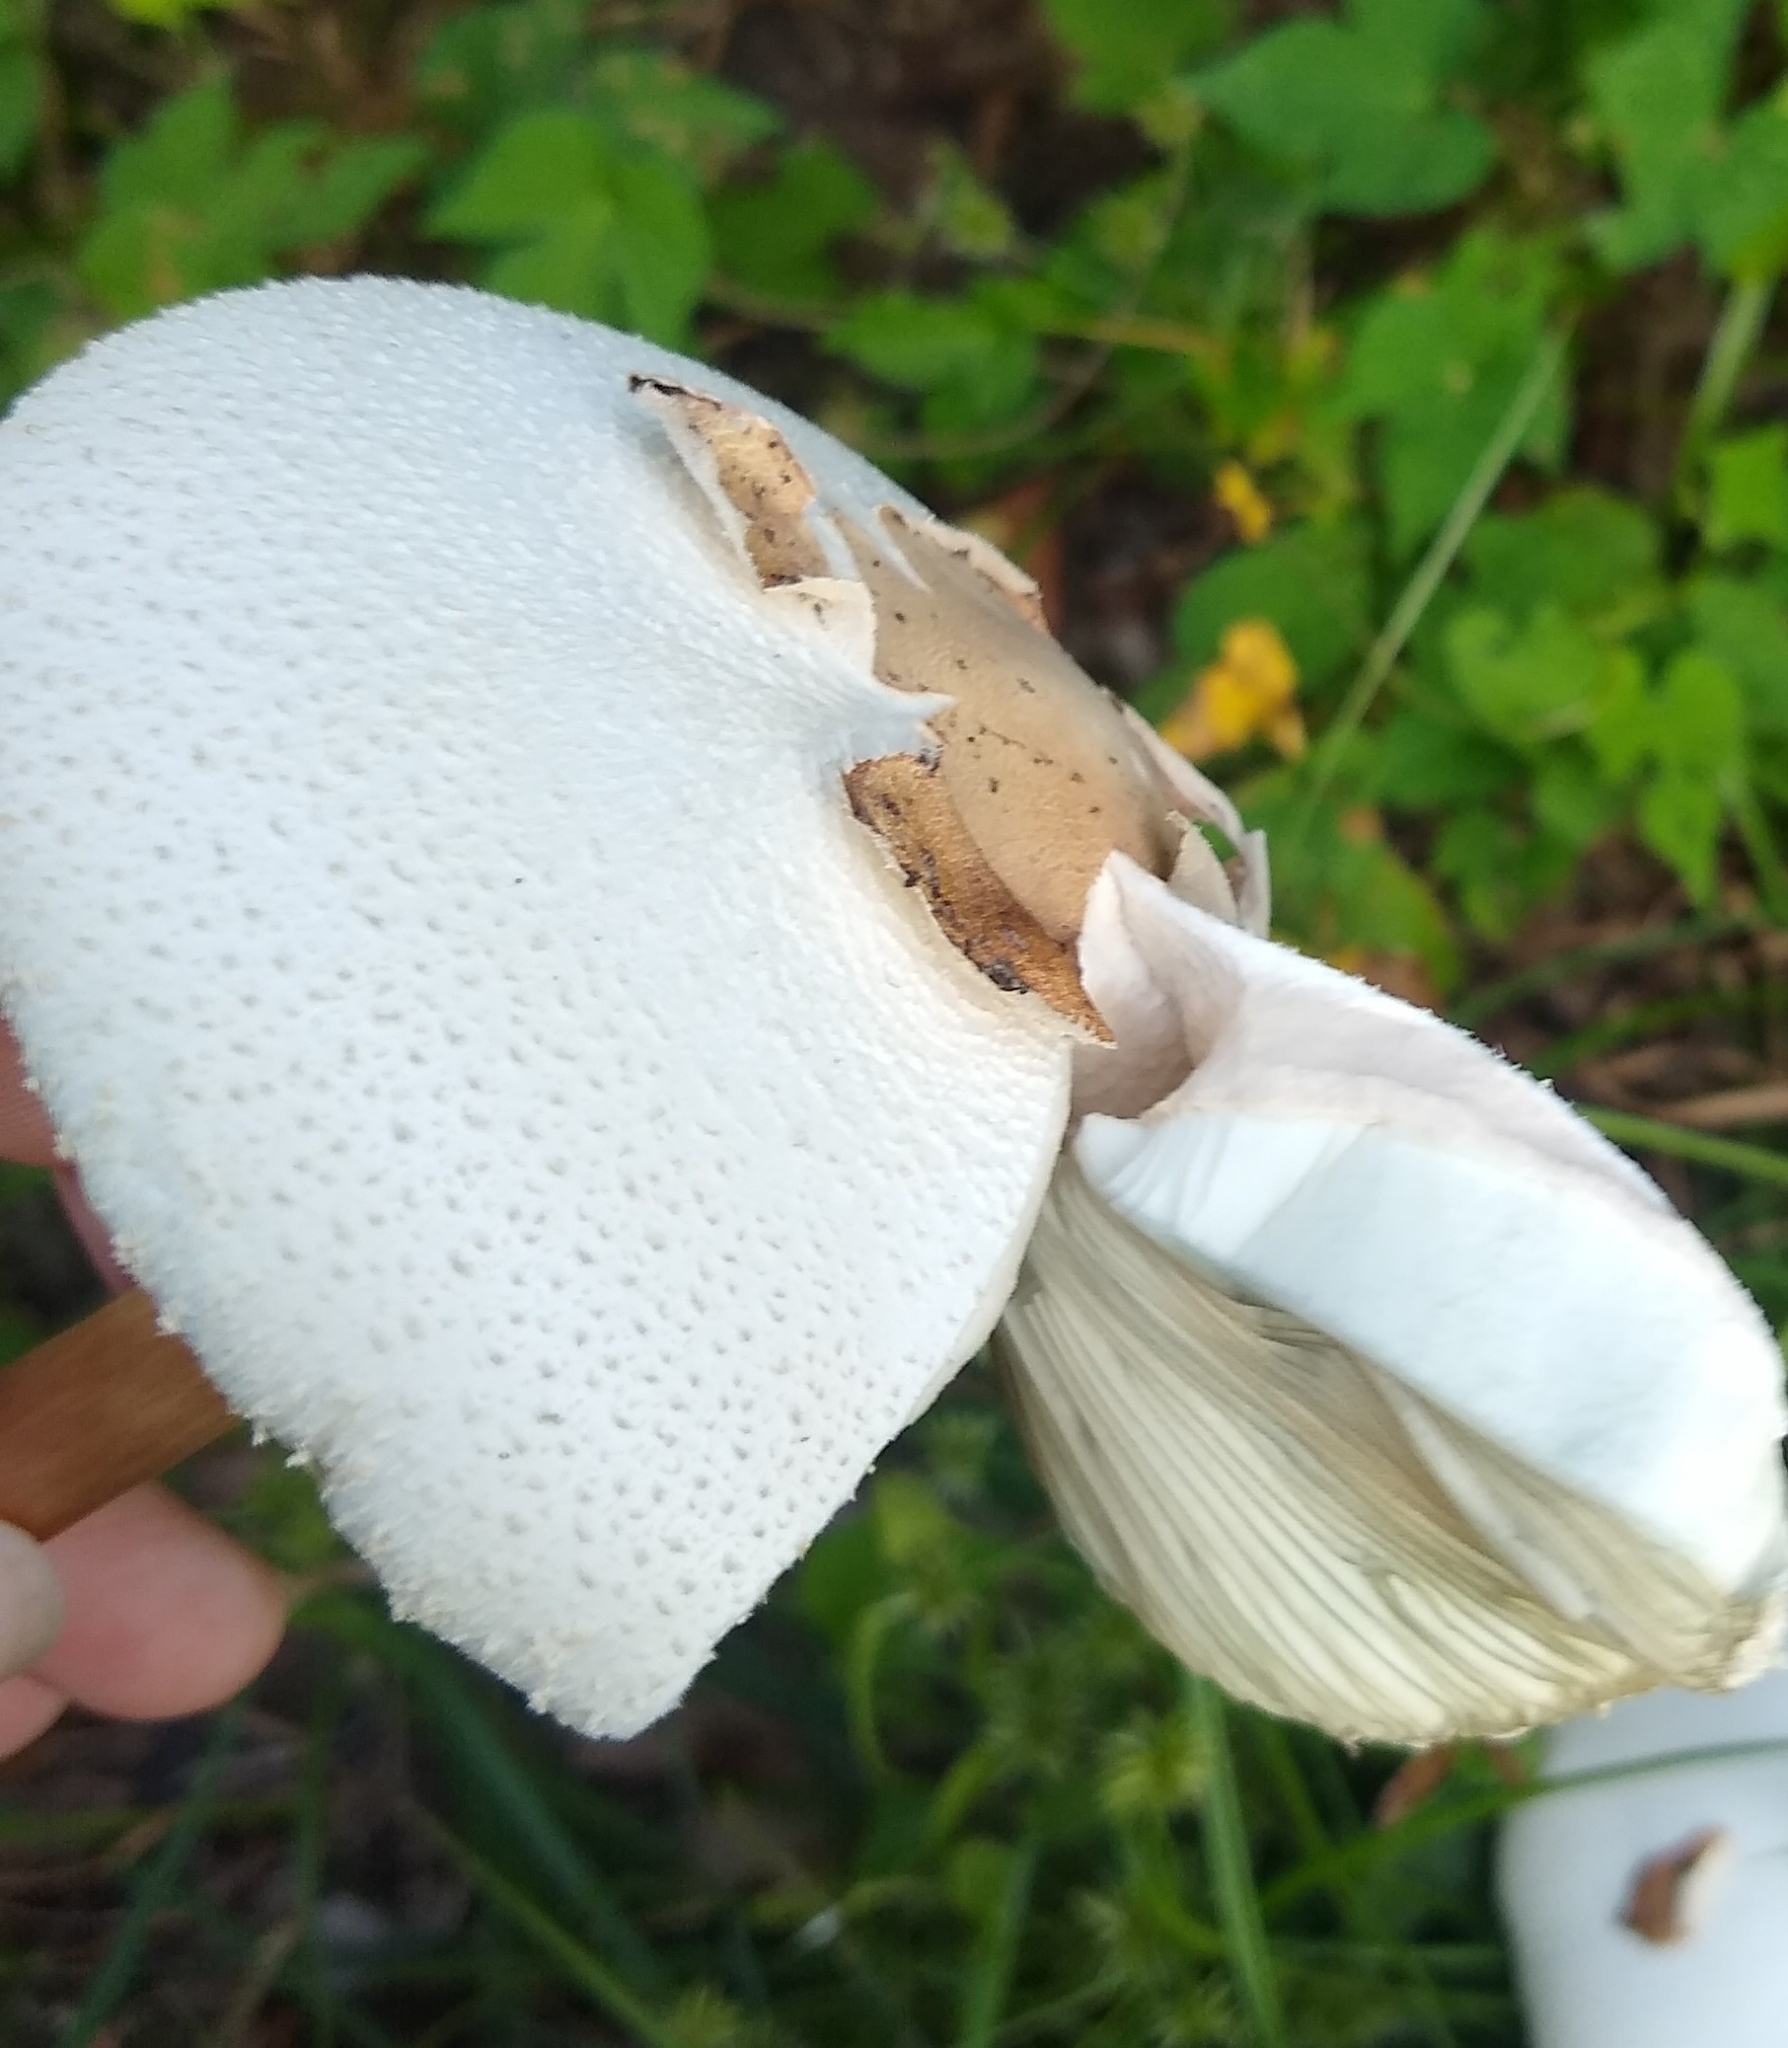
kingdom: Fungi
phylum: Basidiomycota
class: Agaricomycetes
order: Agaricales
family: Agaricaceae
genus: Chlorophyllum
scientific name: Chlorophyllum molybdites
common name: False parasol
